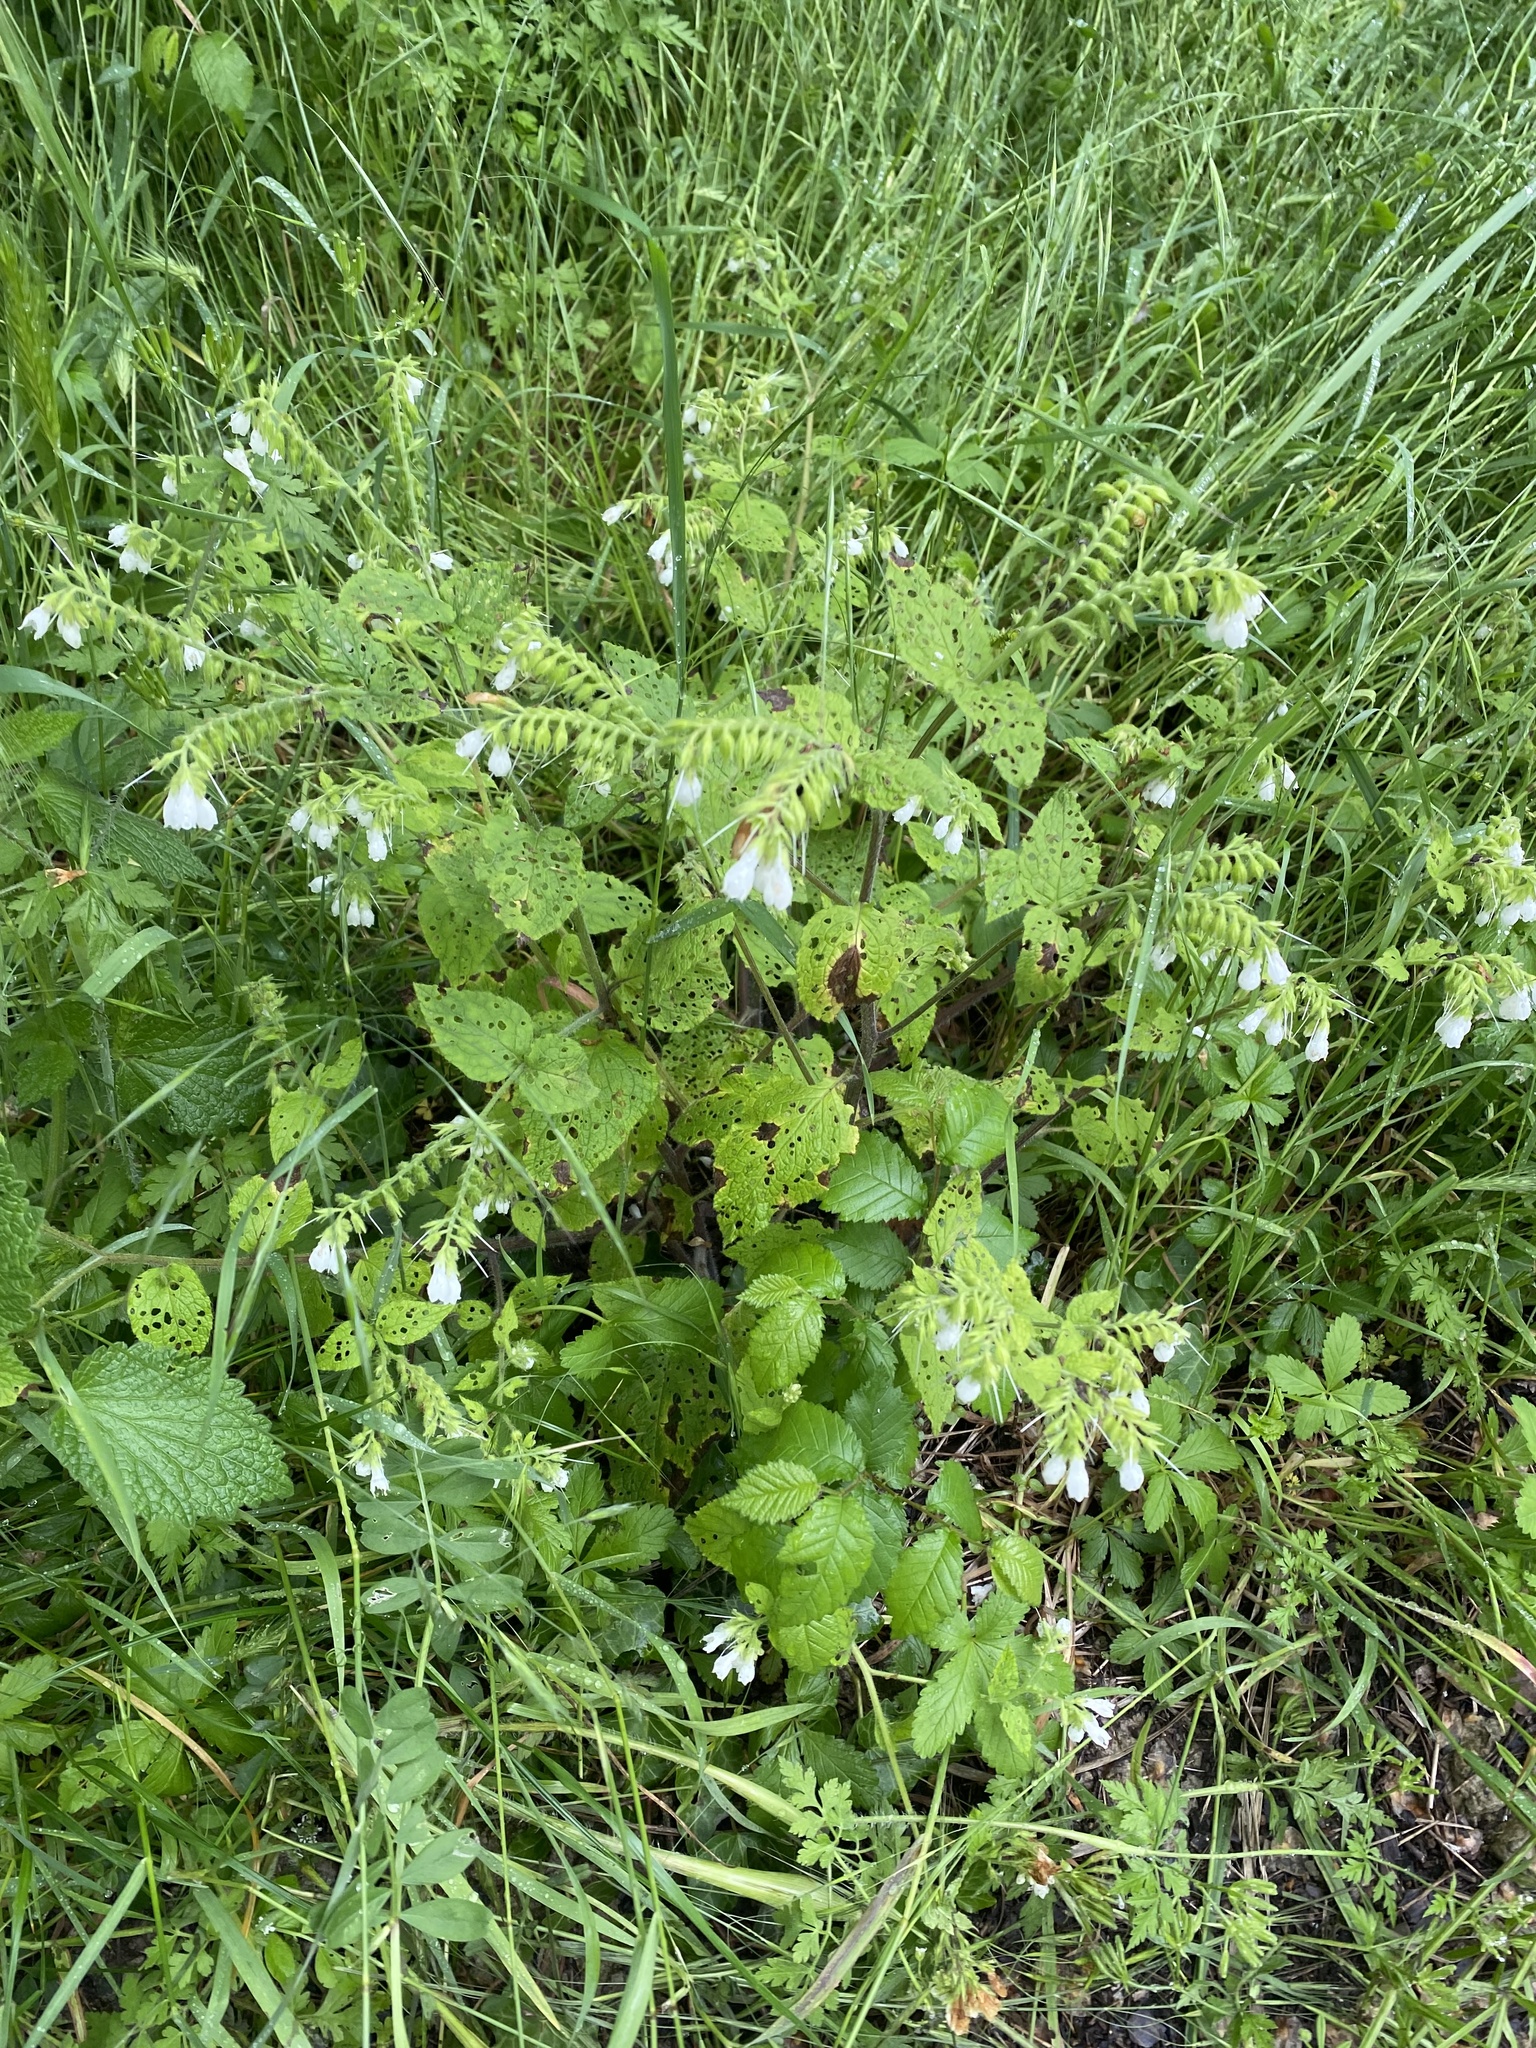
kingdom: Plantae
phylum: Tracheophyta
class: Magnoliopsida
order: Boraginales
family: Boraginaceae
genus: Symphytum
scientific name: Symphytum tauricum
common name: Crimean comfrey
